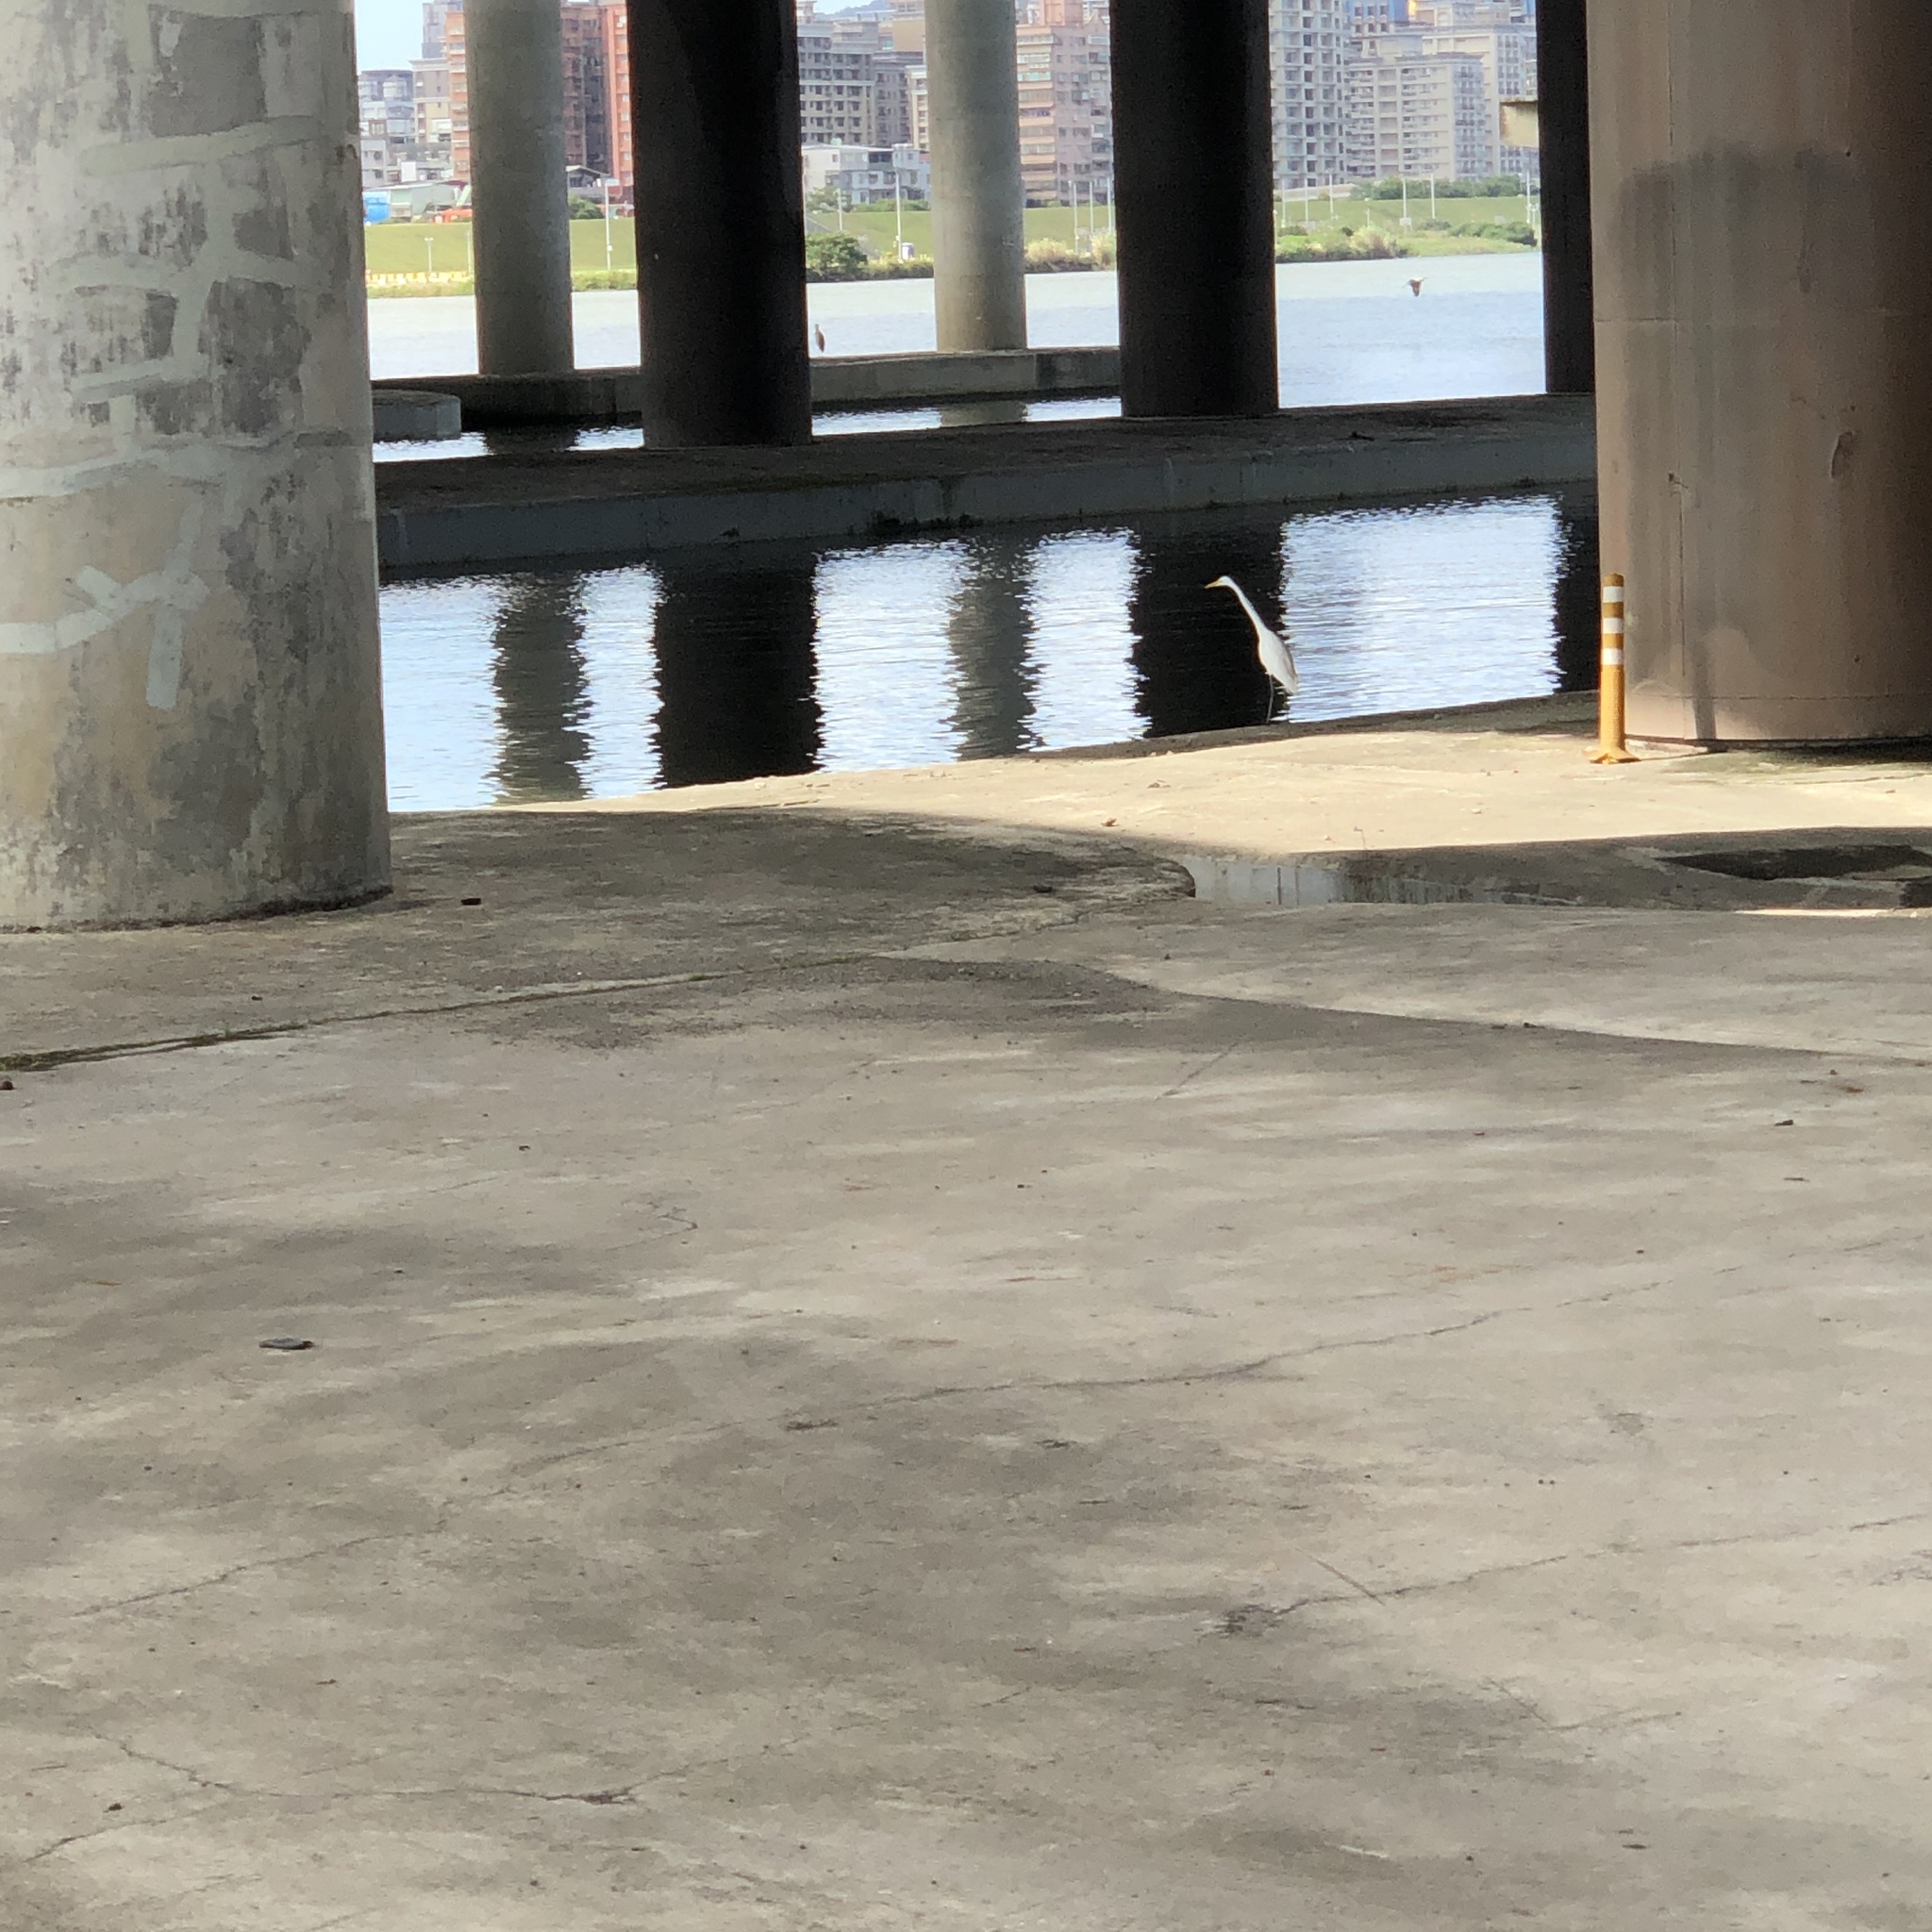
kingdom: Animalia
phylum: Chordata
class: Aves
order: Pelecaniformes
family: Ardeidae
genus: Ardea
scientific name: Ardea alba
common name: Great egret
